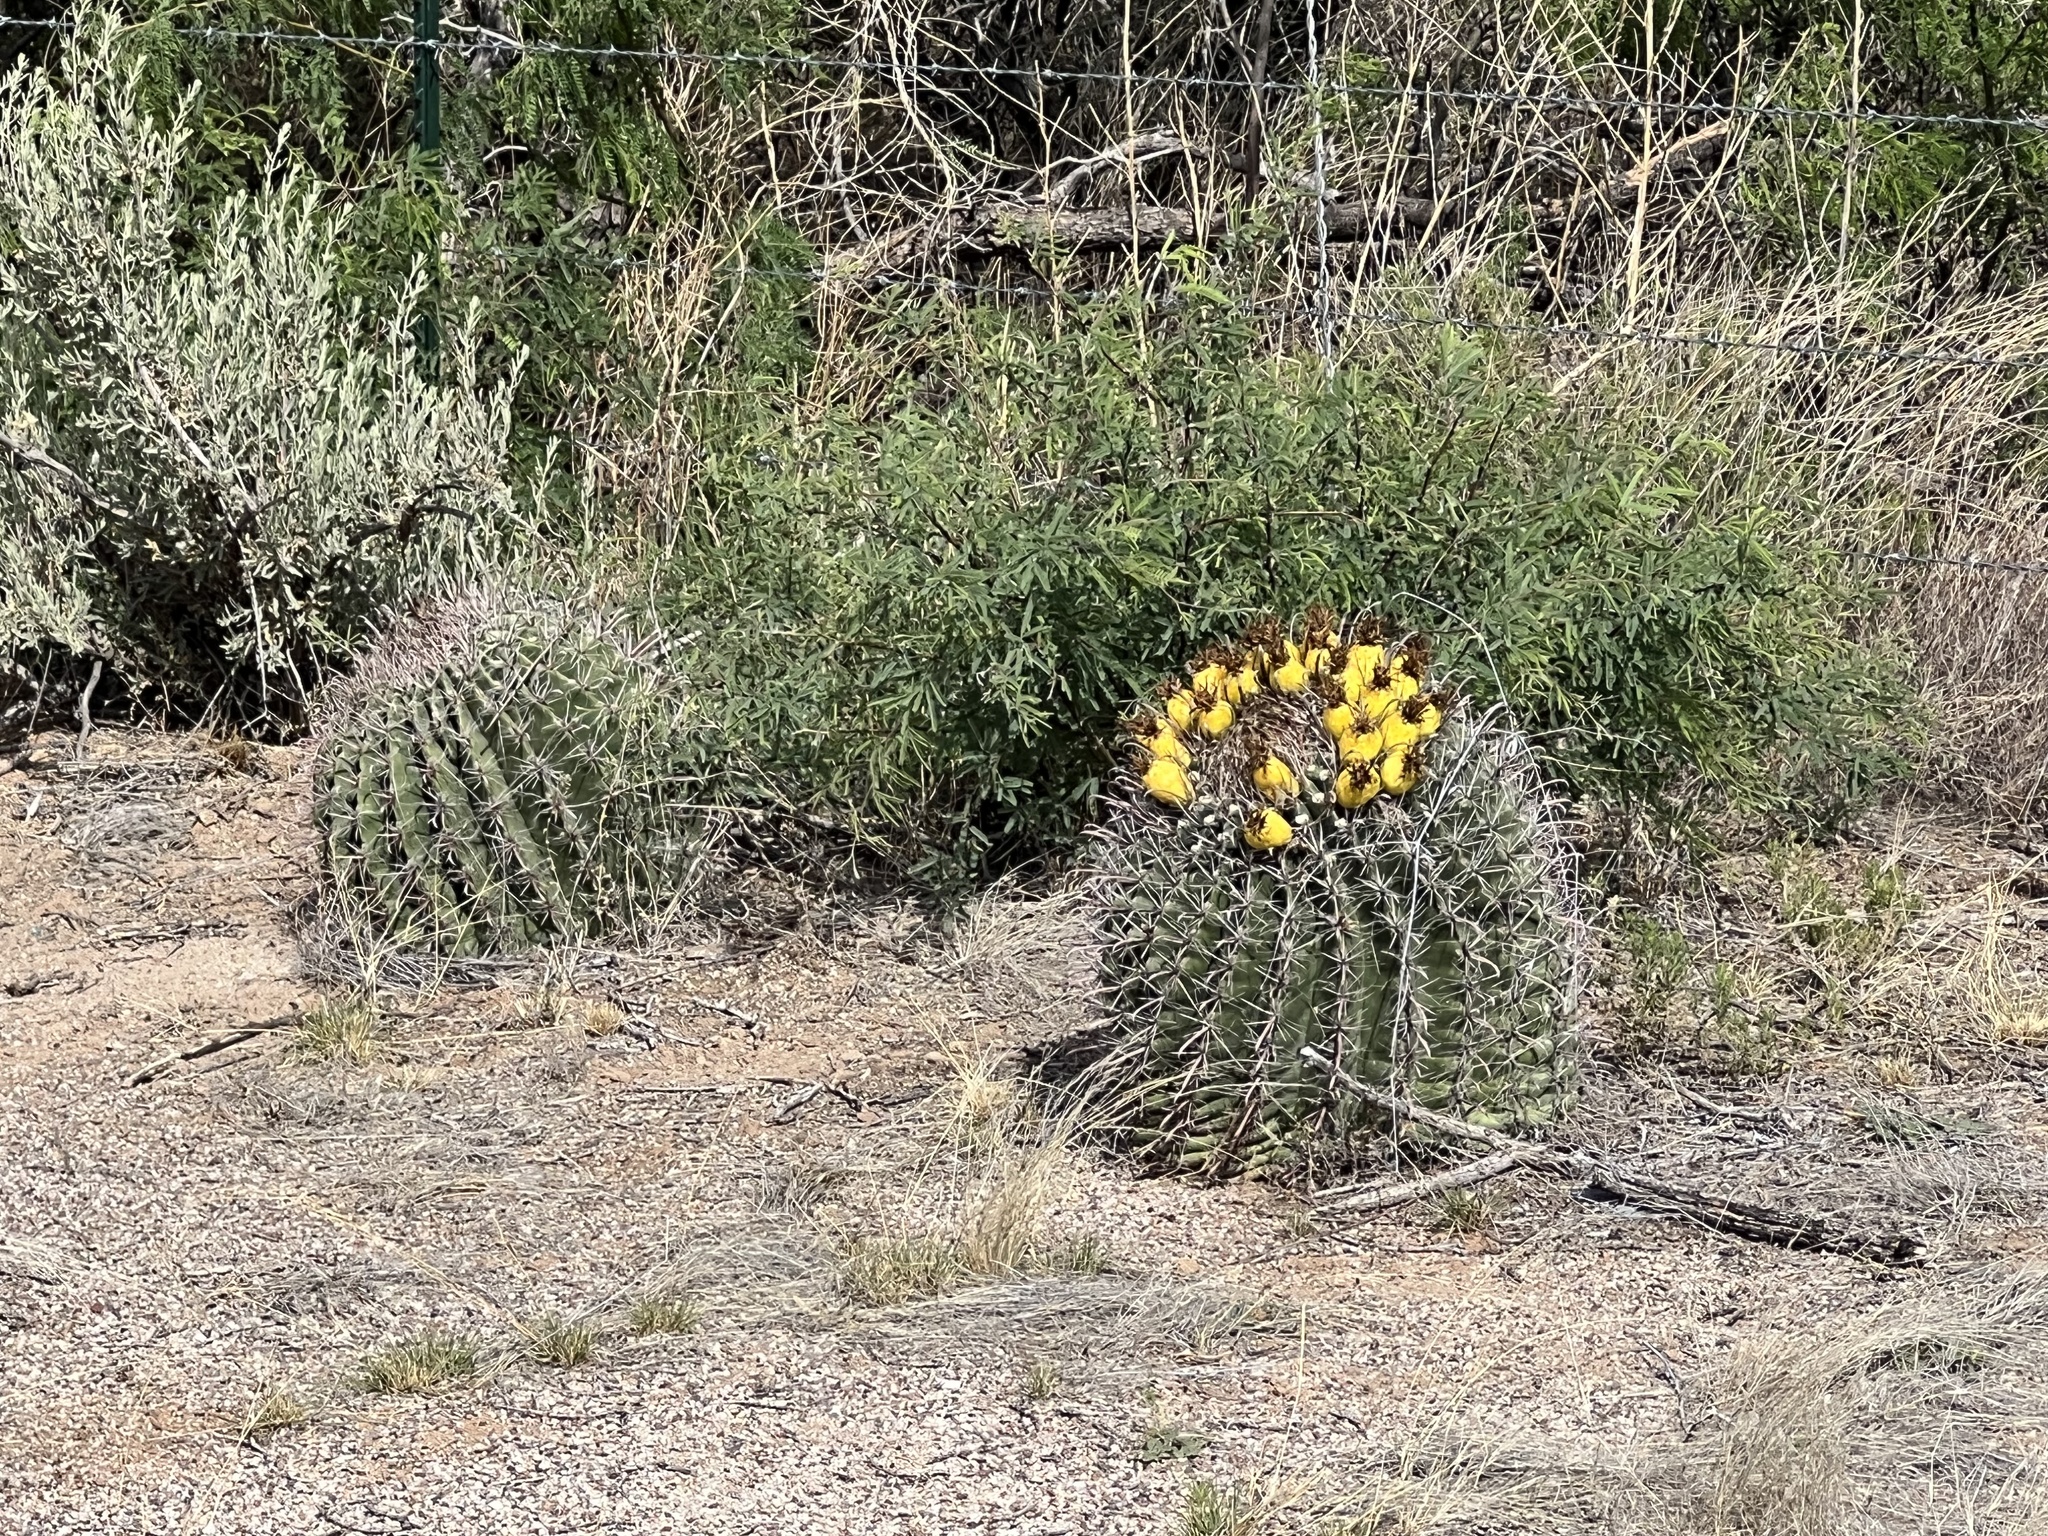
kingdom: Plantae
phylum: Tracheophyta
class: Magnoliopsida
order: Caryophyllales
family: Cactaceae
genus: Ferocactus
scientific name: Ferocactus wislizeni
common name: Candy barrel cactus
